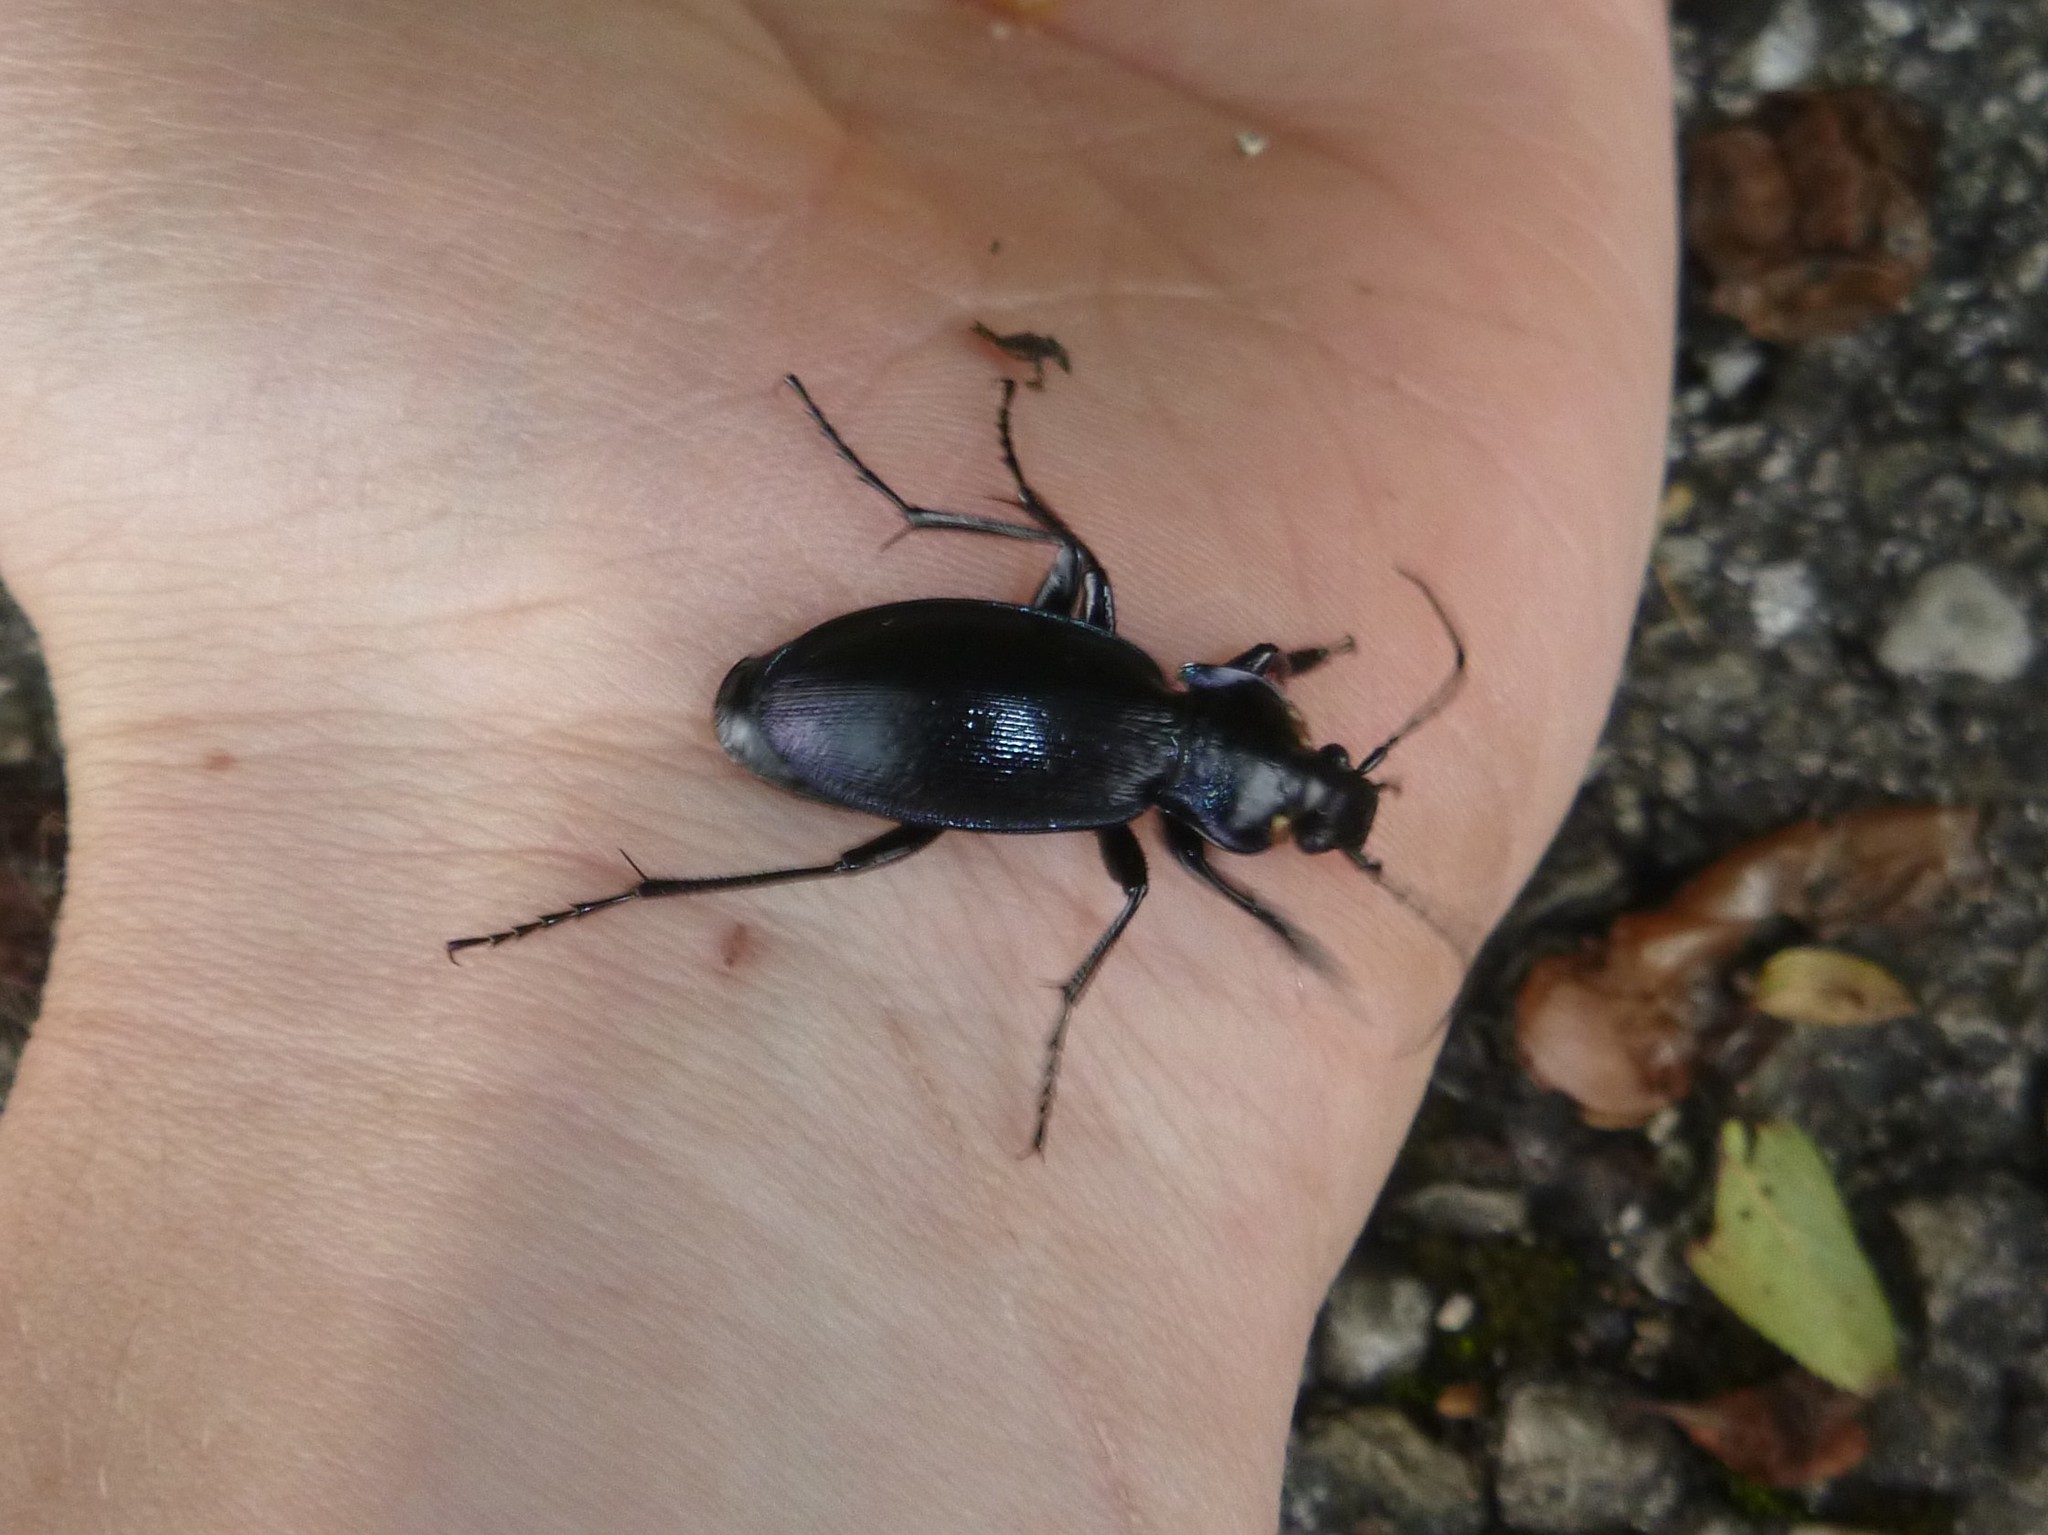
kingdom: Animalia
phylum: Arthropoda
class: Insecta
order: Coleoptera
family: Carabidae
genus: Carabus
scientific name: Carabus scheidleri
